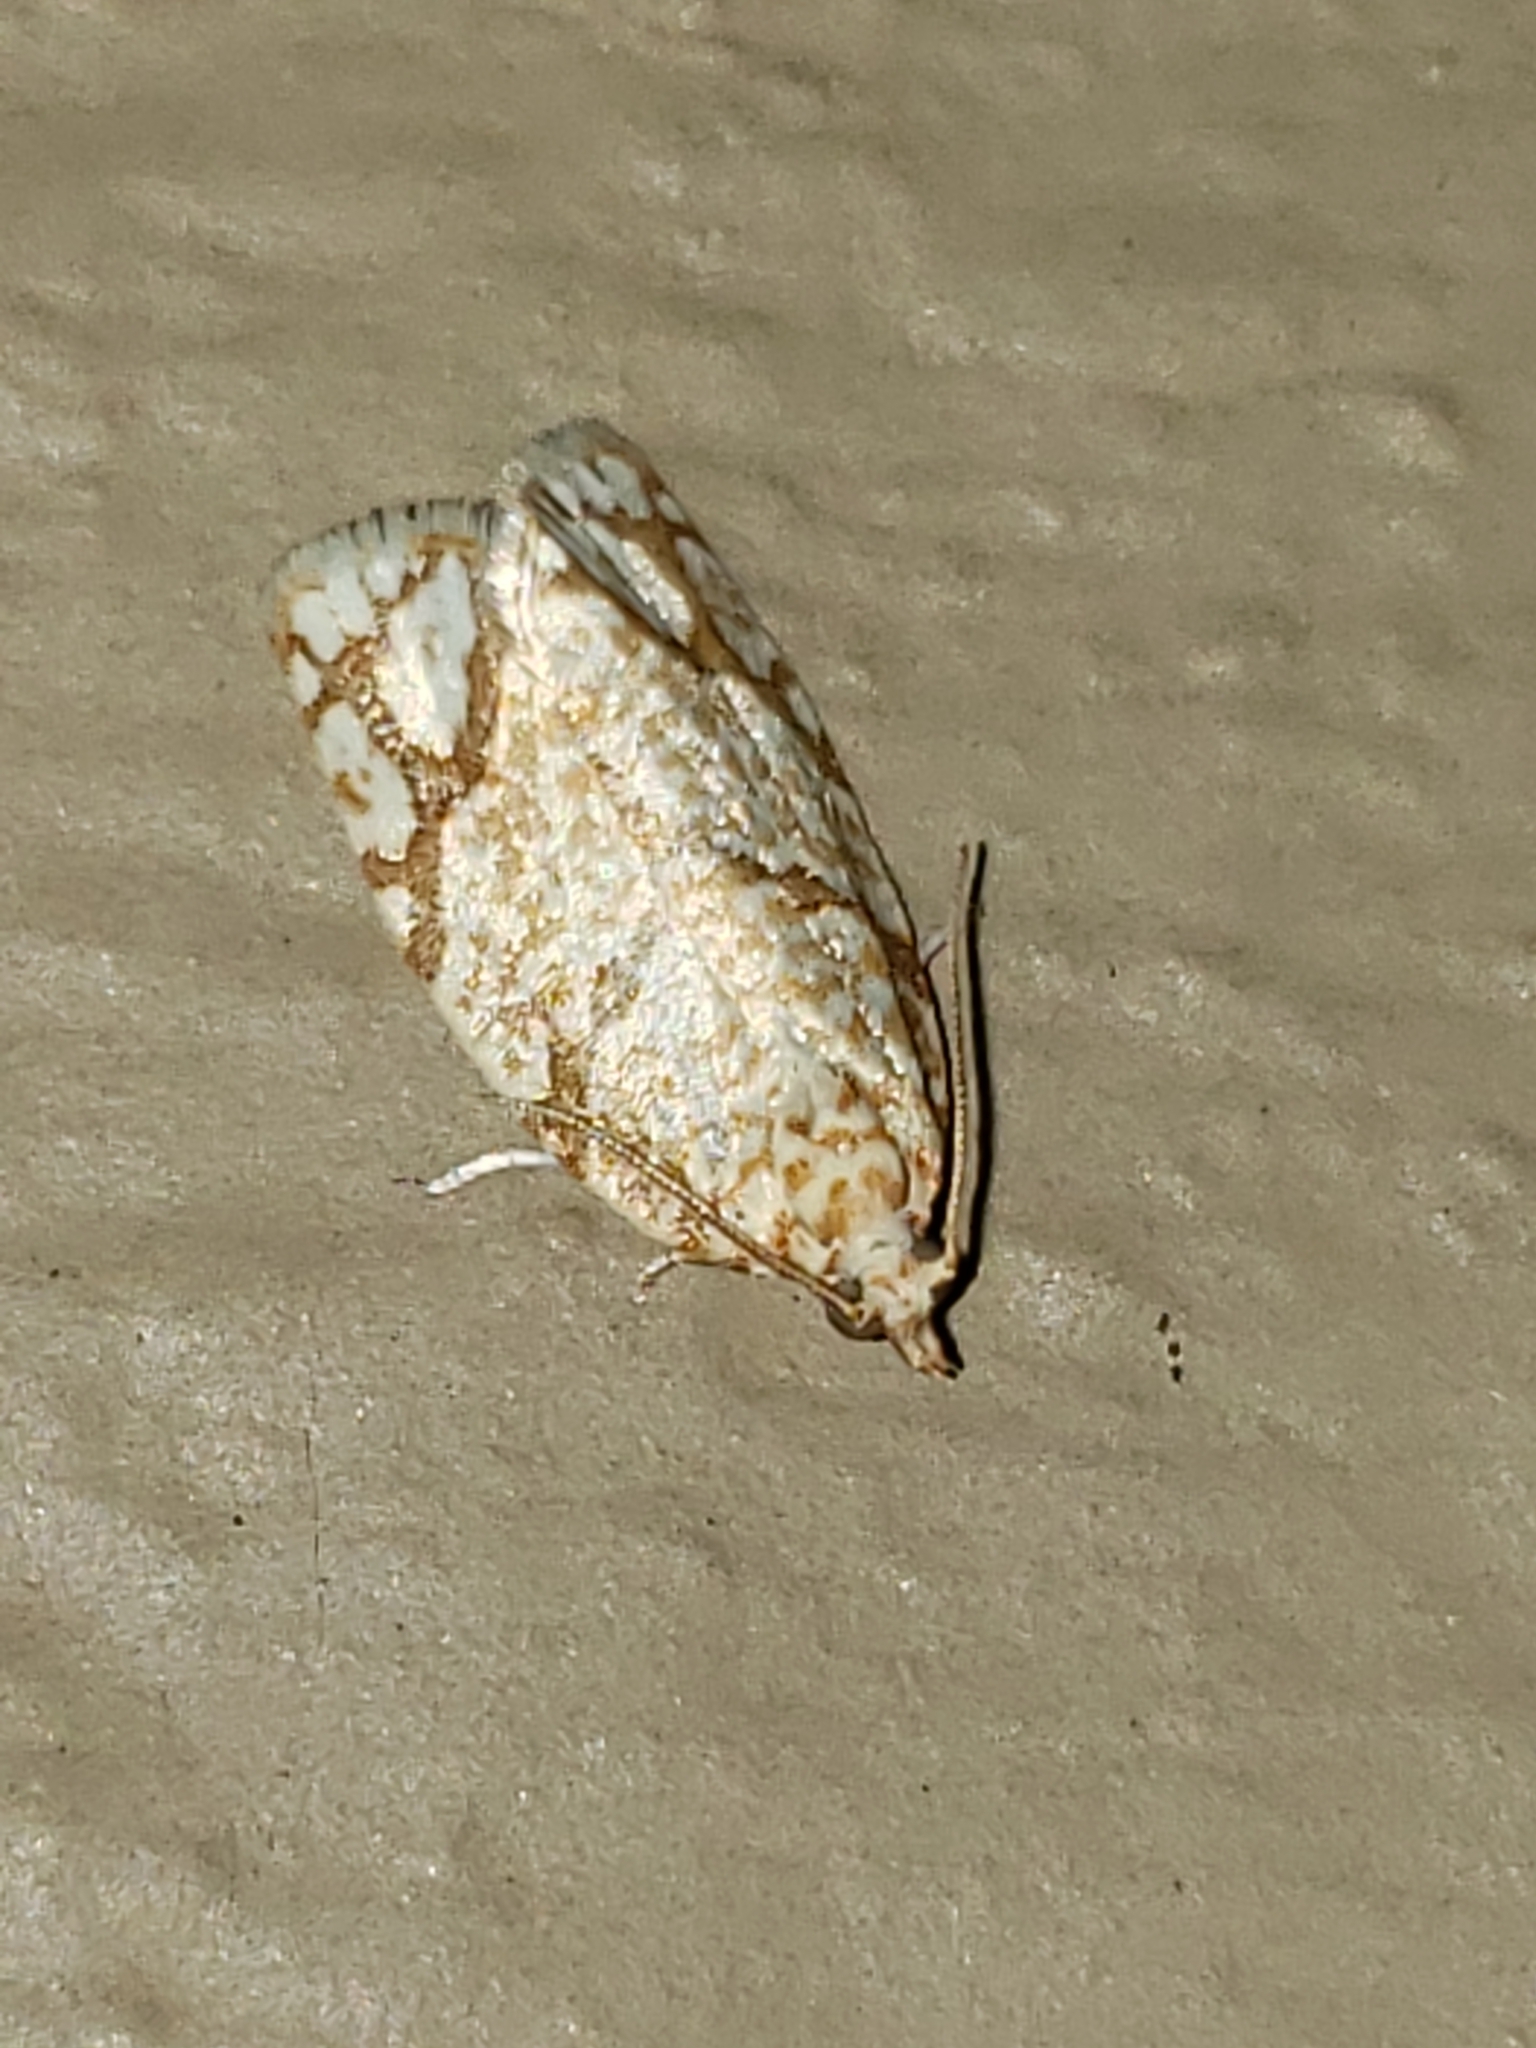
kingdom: Animalia
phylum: Arthropoda
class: Insecta
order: Lepidoptera
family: Tortricidae
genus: Argyrotaenia
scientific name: Argyrotaenia quercifoliana
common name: Yellow-winged oak leafroller moth
